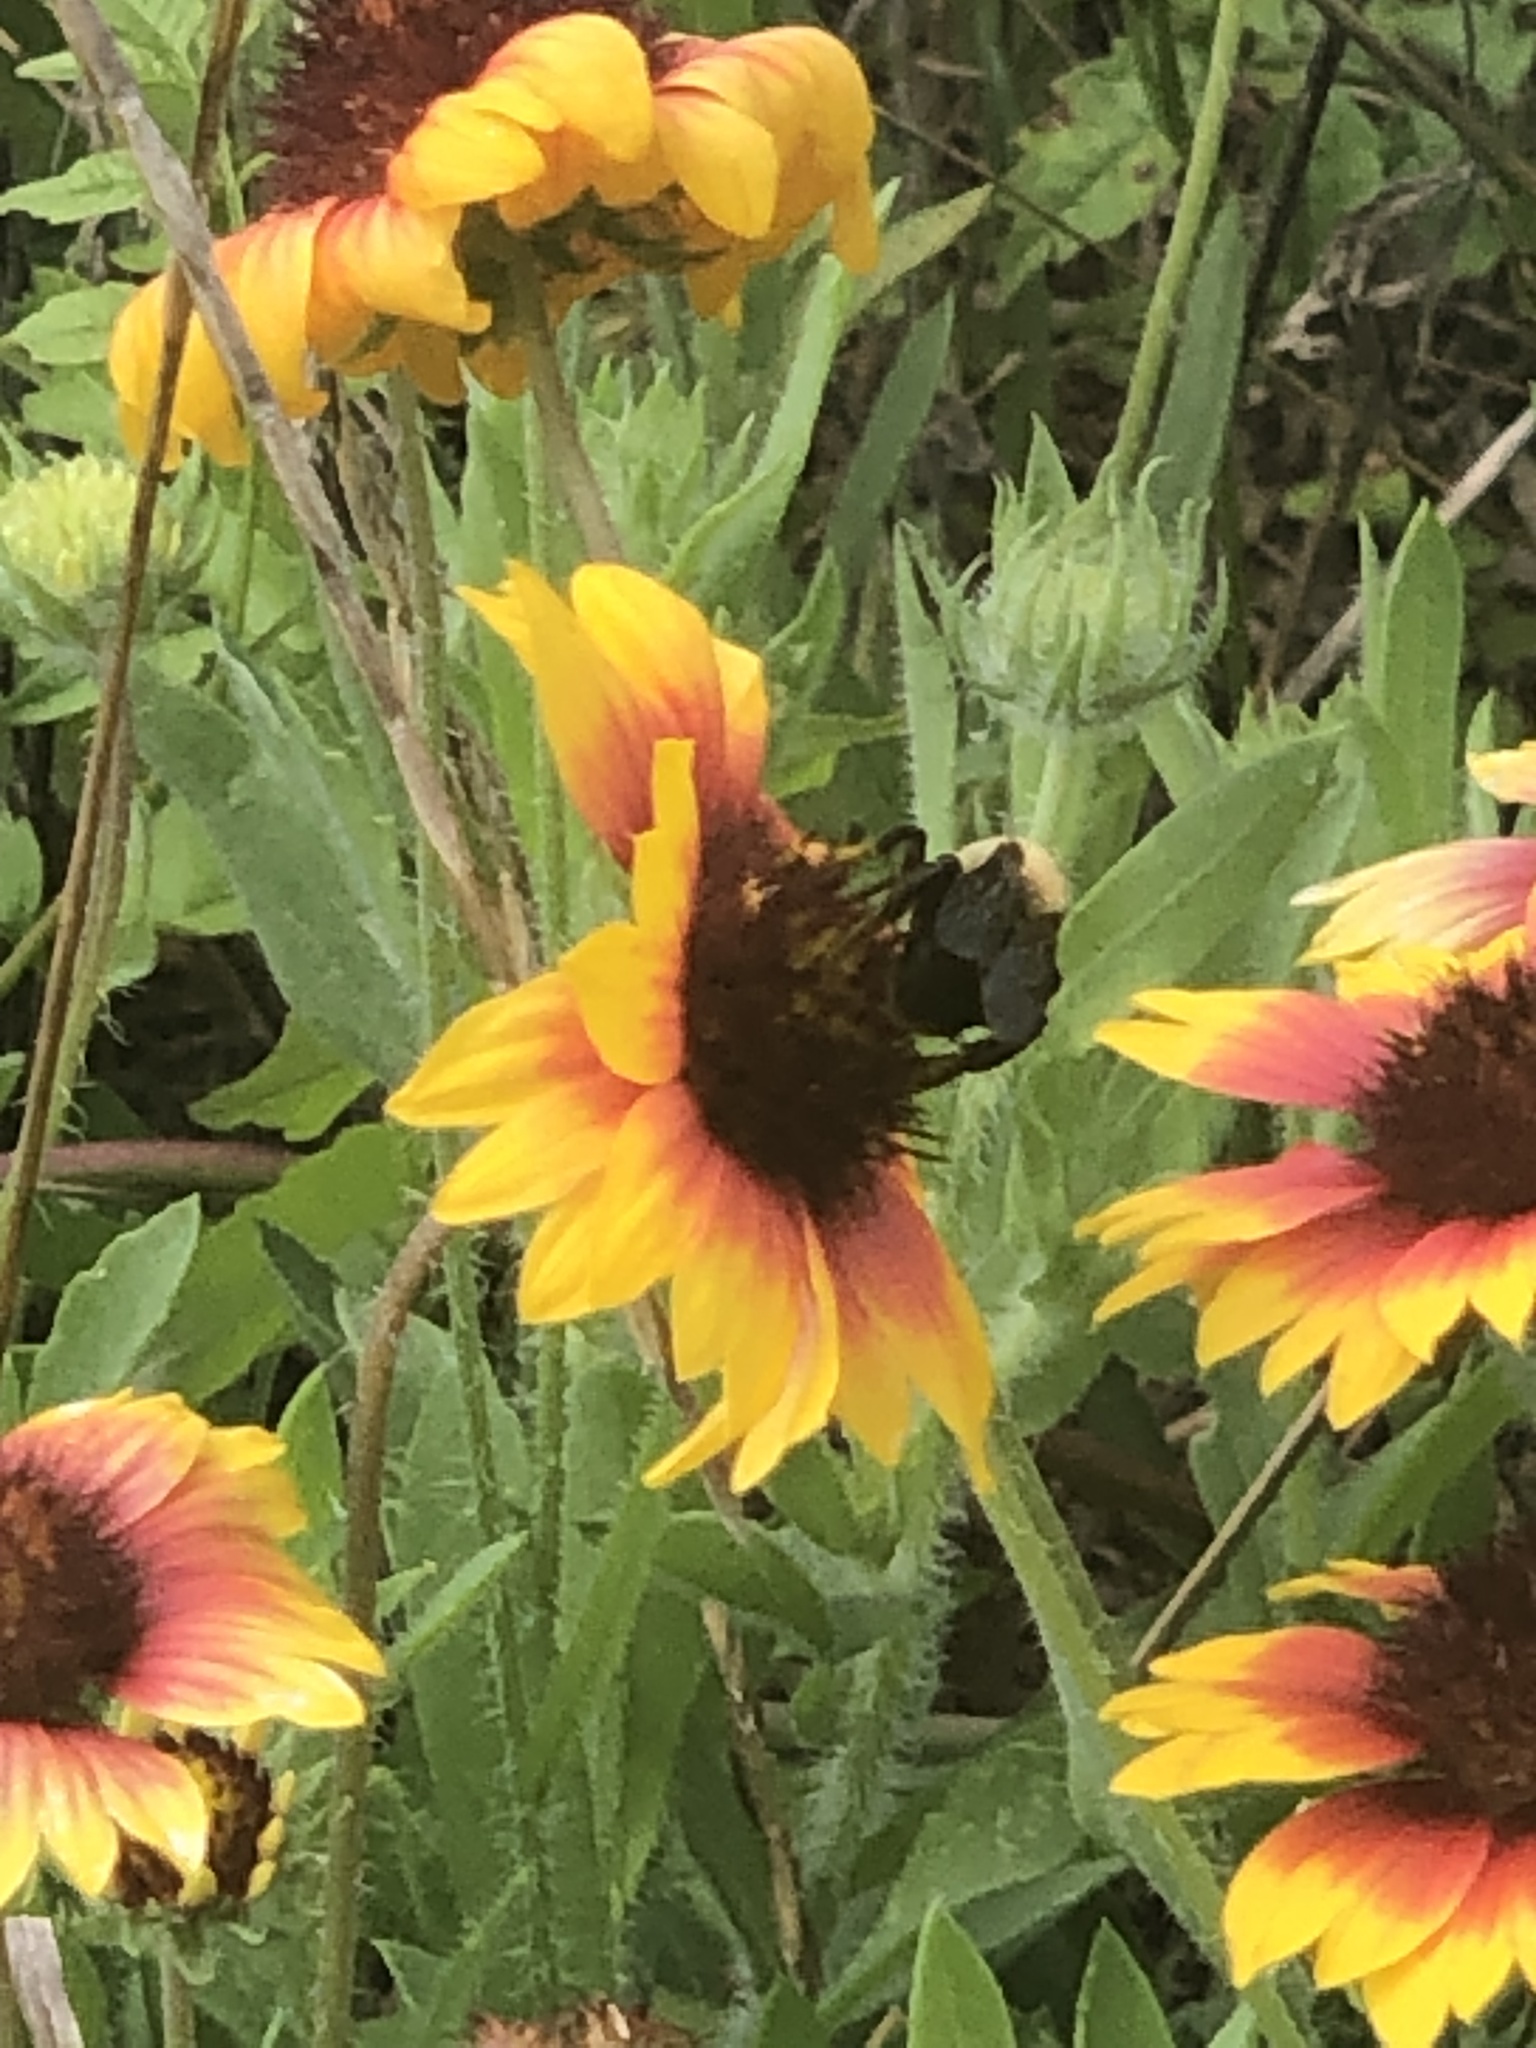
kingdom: Animalia
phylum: Arthropoda
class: Insecta
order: Hymenoptera
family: Apidae
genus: Ptilothrix
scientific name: Ptilothrix bombiformis
